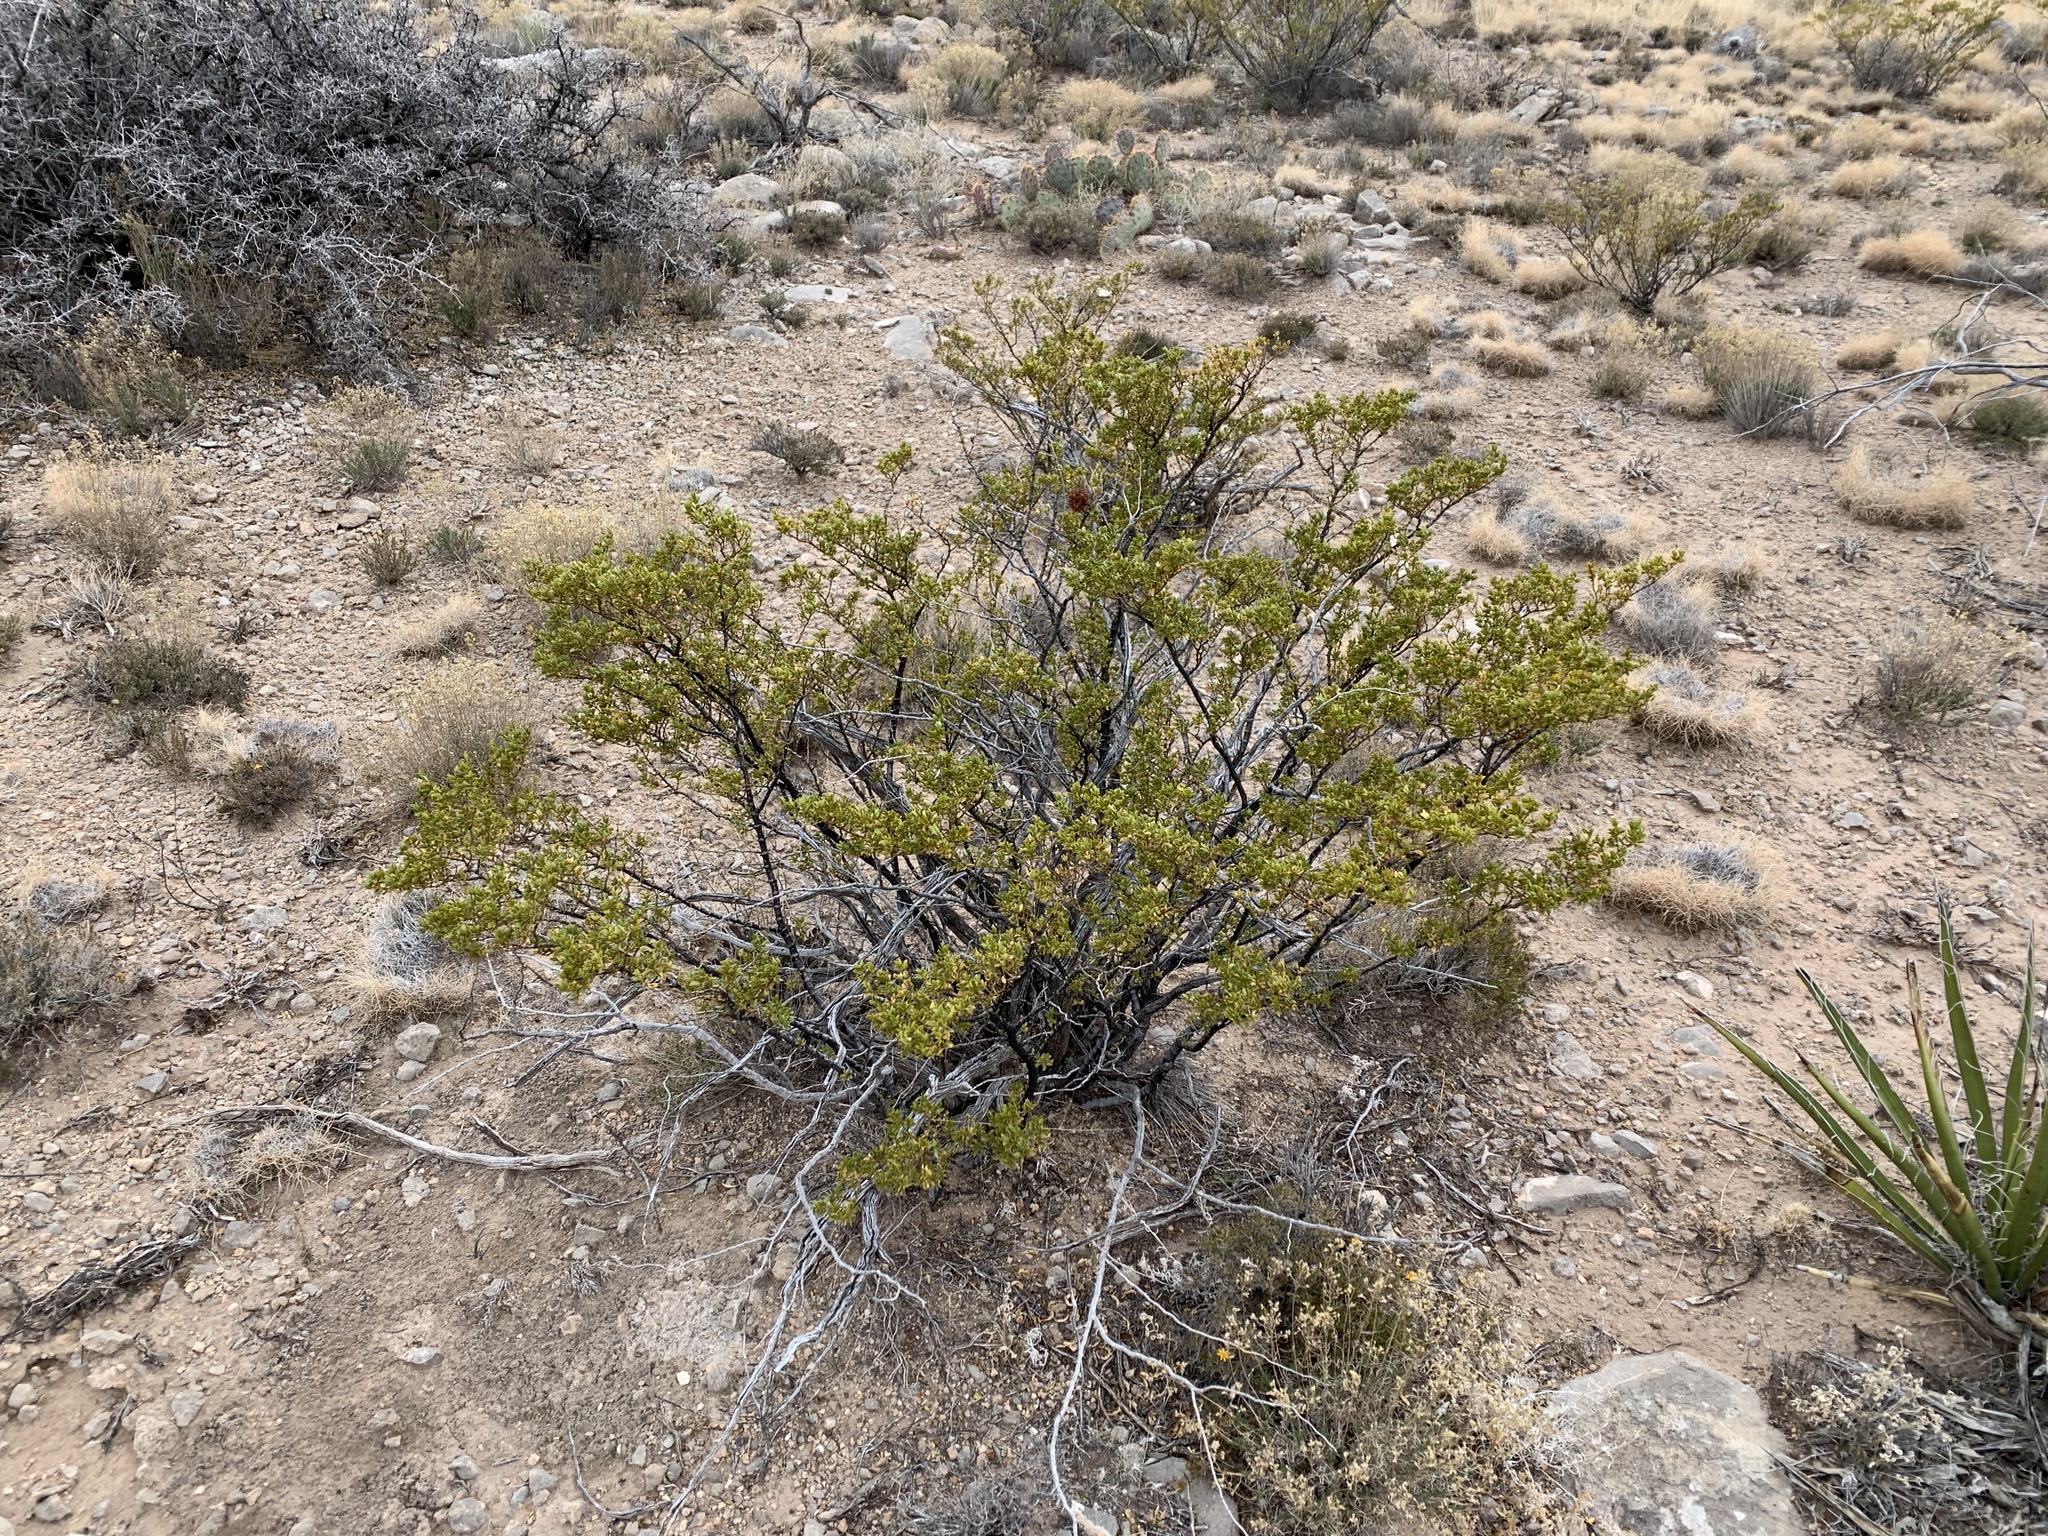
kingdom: Plantae
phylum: Tracheophyta
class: Magnoliopsida
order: Zygophyllales
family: Zygophyllaceae
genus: Larrea
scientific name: Larrea tridentata
